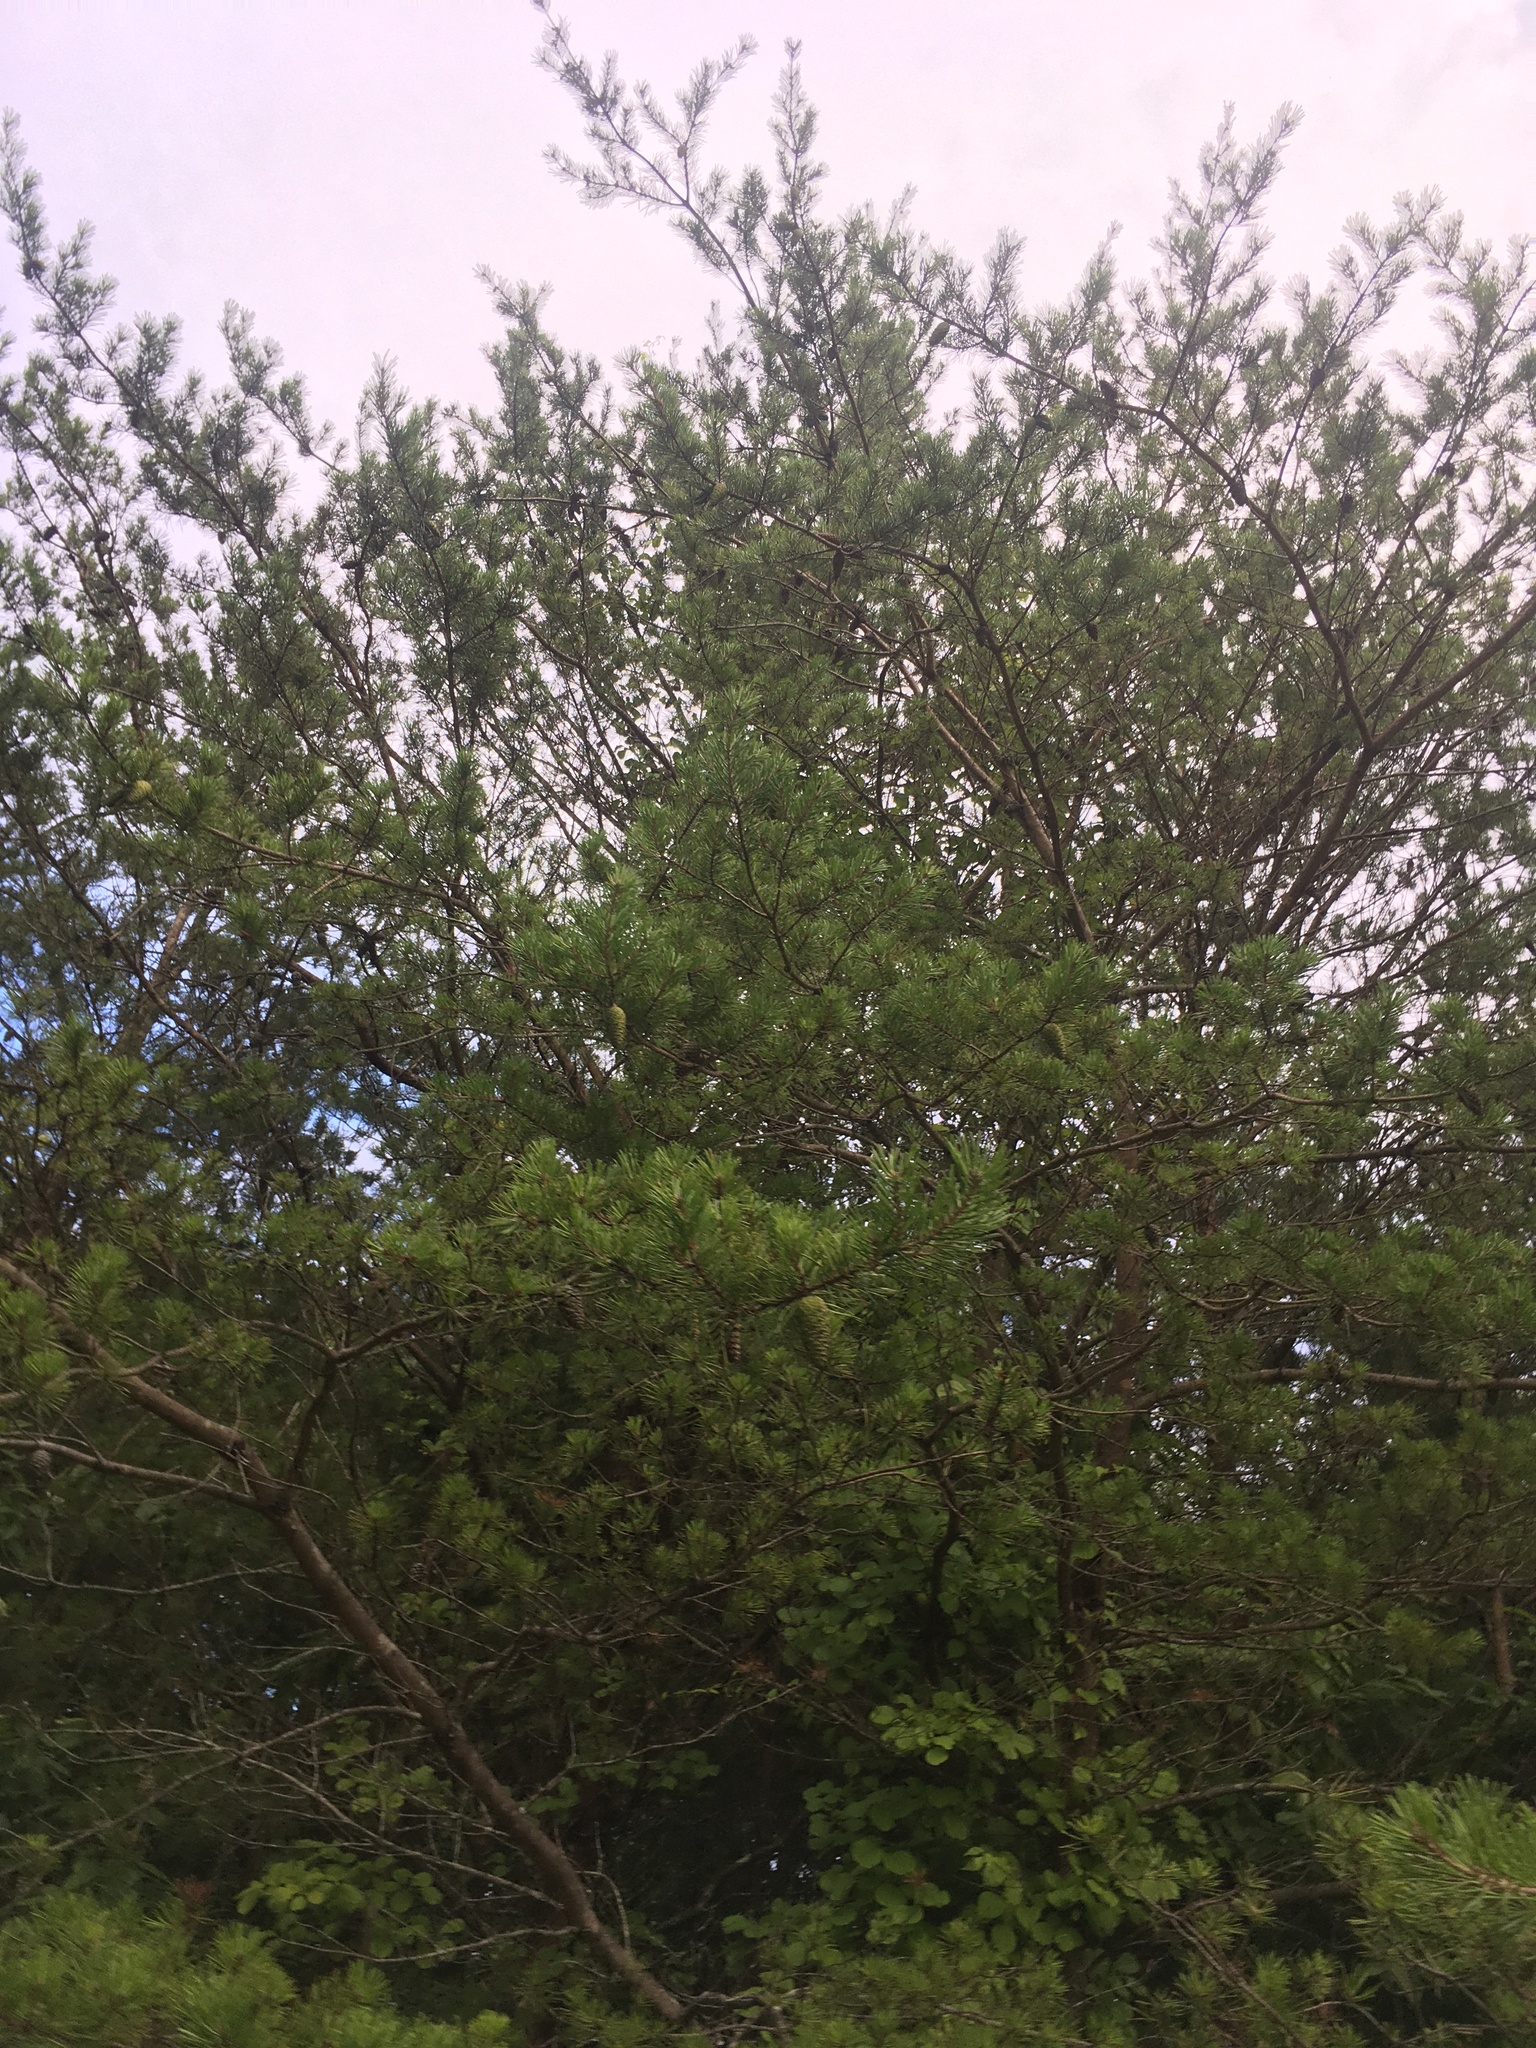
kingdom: Plantae
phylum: Tracheophyta
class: Pinopsida
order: Pinales
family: Pinaceae
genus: Pinus
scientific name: Pinus virginiana
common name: Scrub pine
